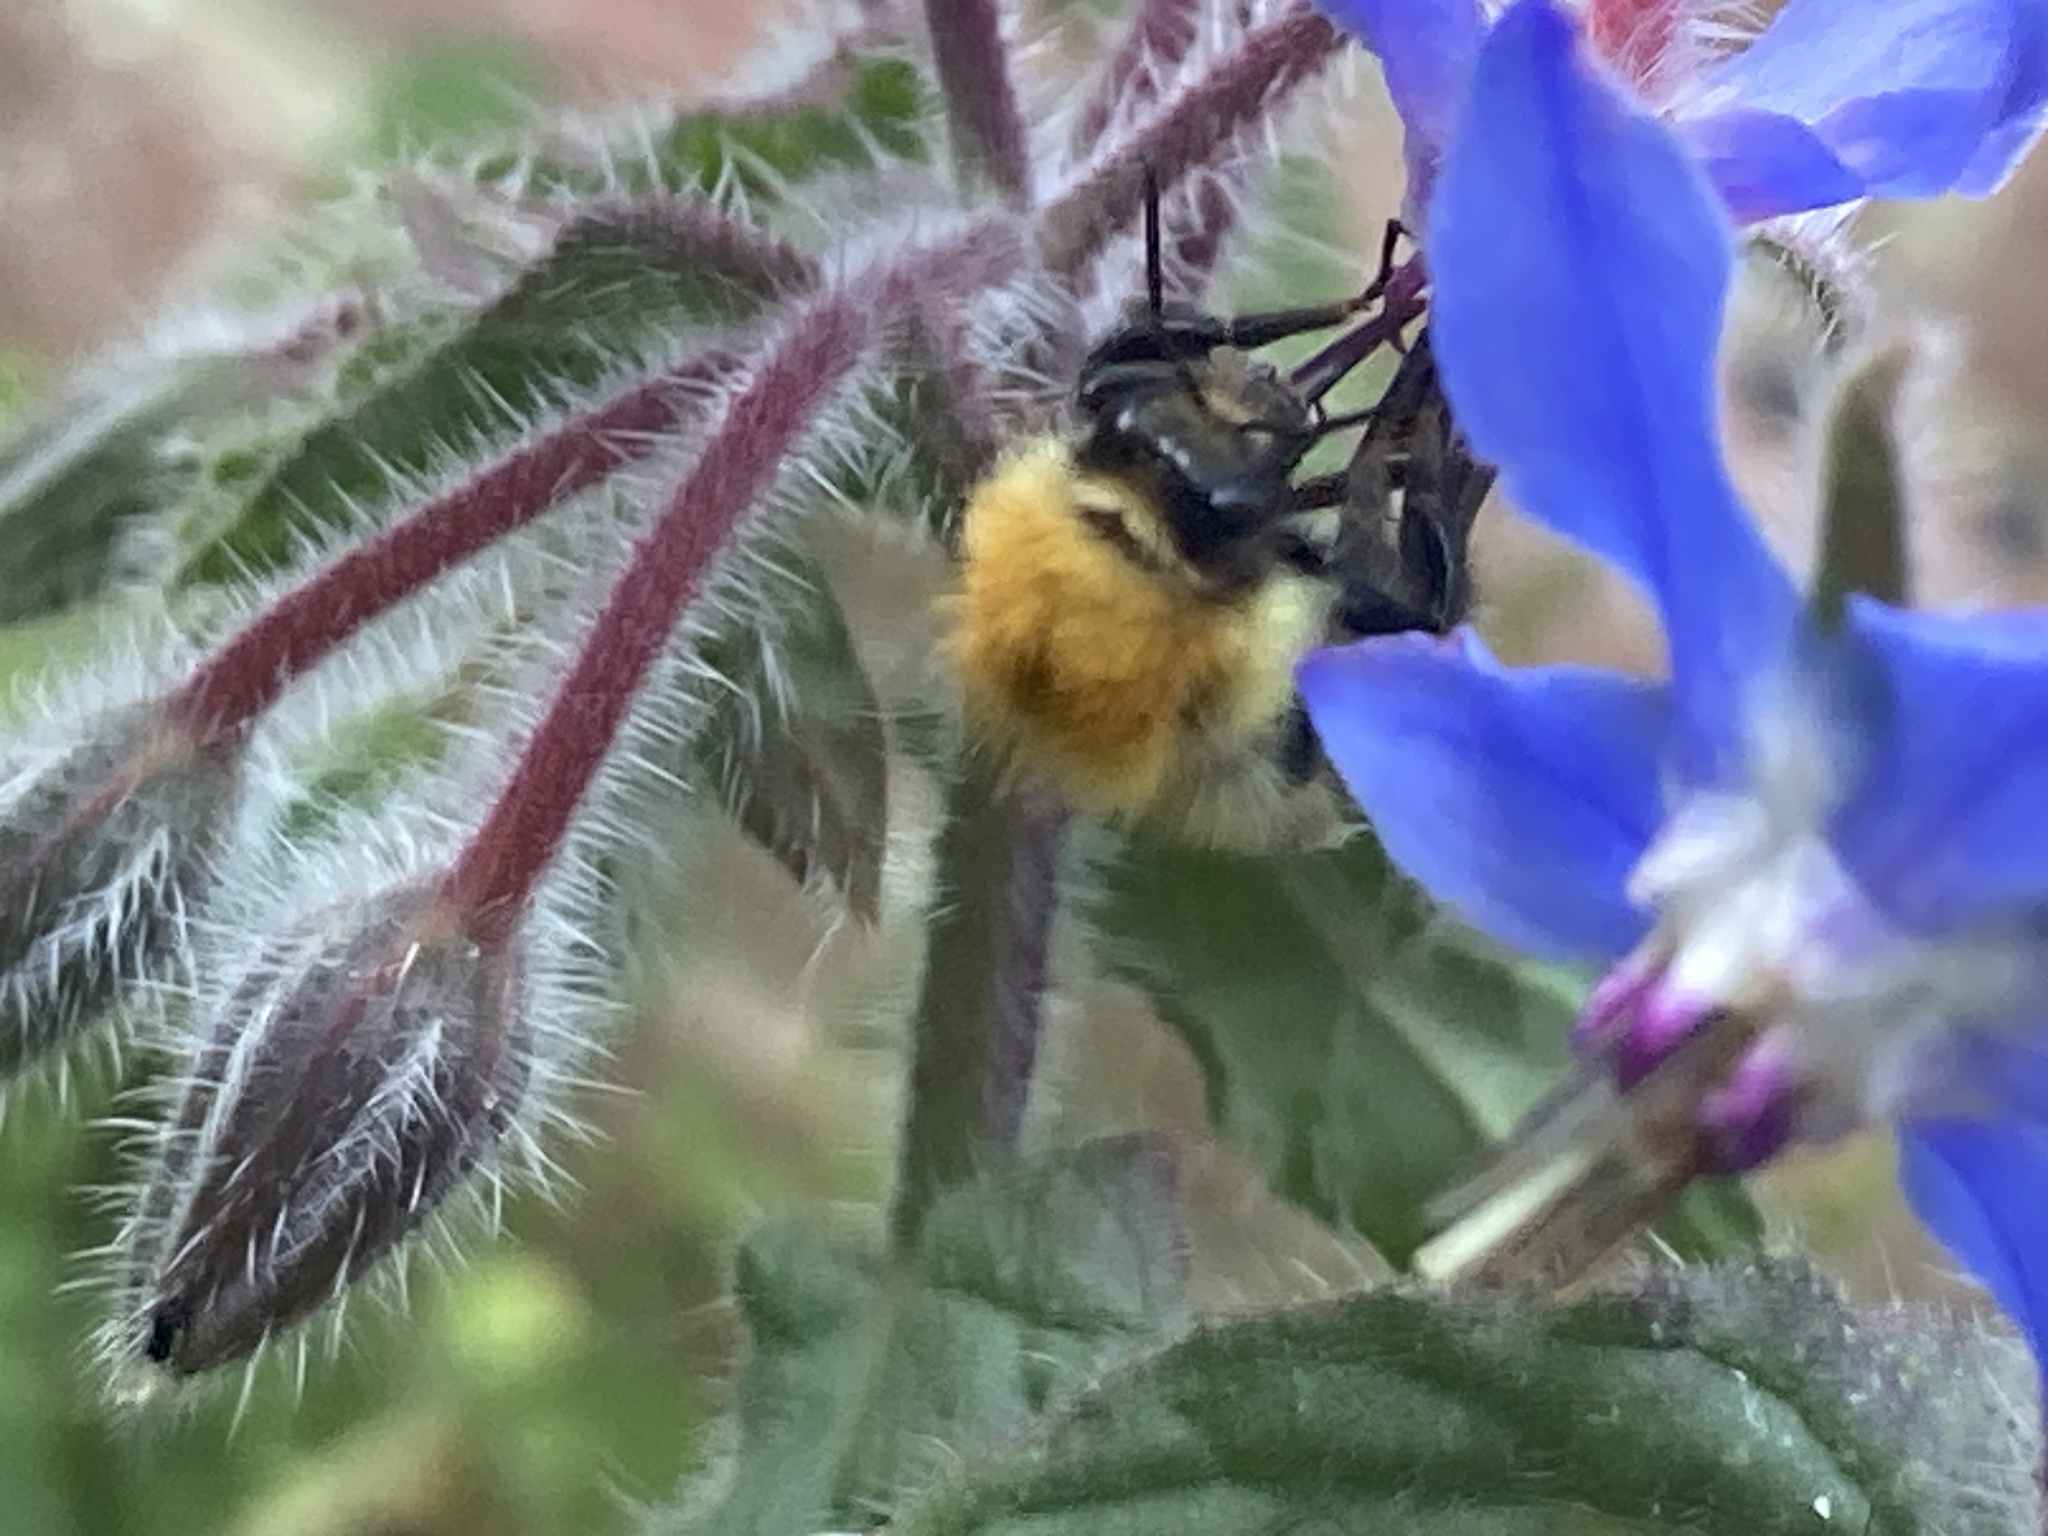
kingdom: Animalia
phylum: Arthropoda
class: Insecta
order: Hymenoptera
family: Apidae
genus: Bombus
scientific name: Bombus pascuorum
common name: Common carder bee
